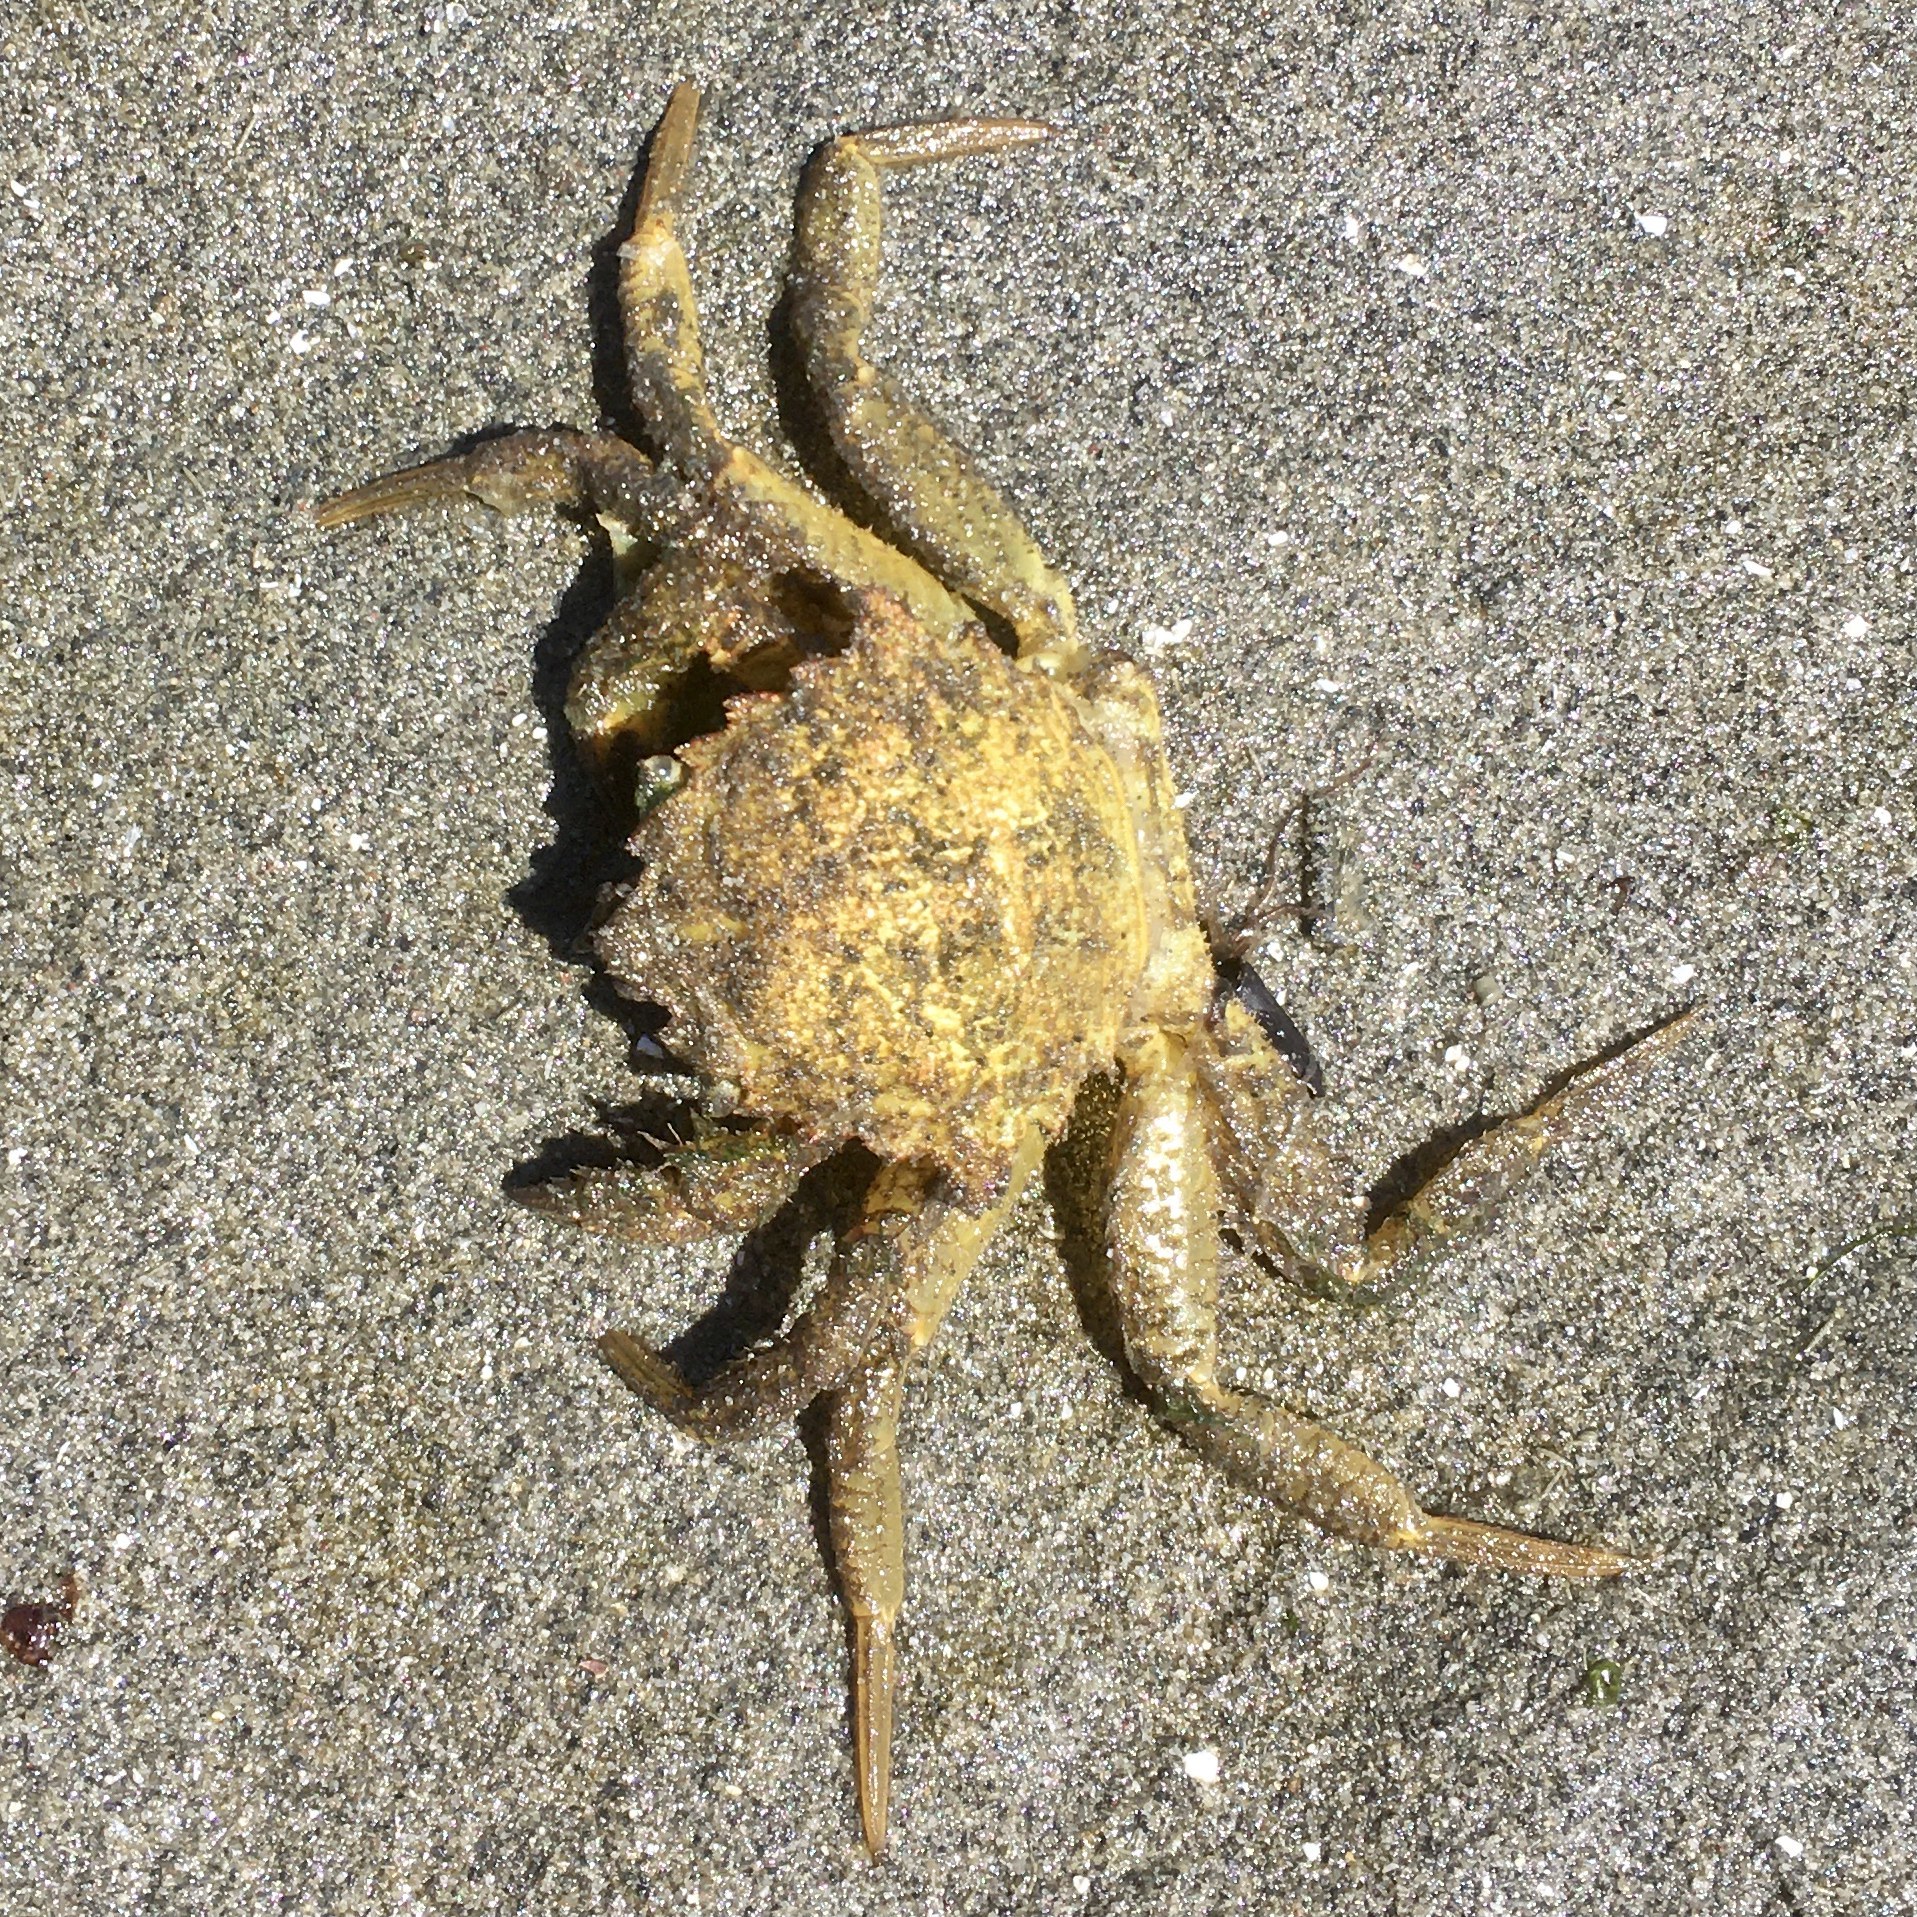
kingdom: Animalia
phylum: Arthropoda
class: Malacostraca
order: Decapoda
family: Cheiragonidae
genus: Telmessus
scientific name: Telmessus cheiragonus
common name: Helmet crab
